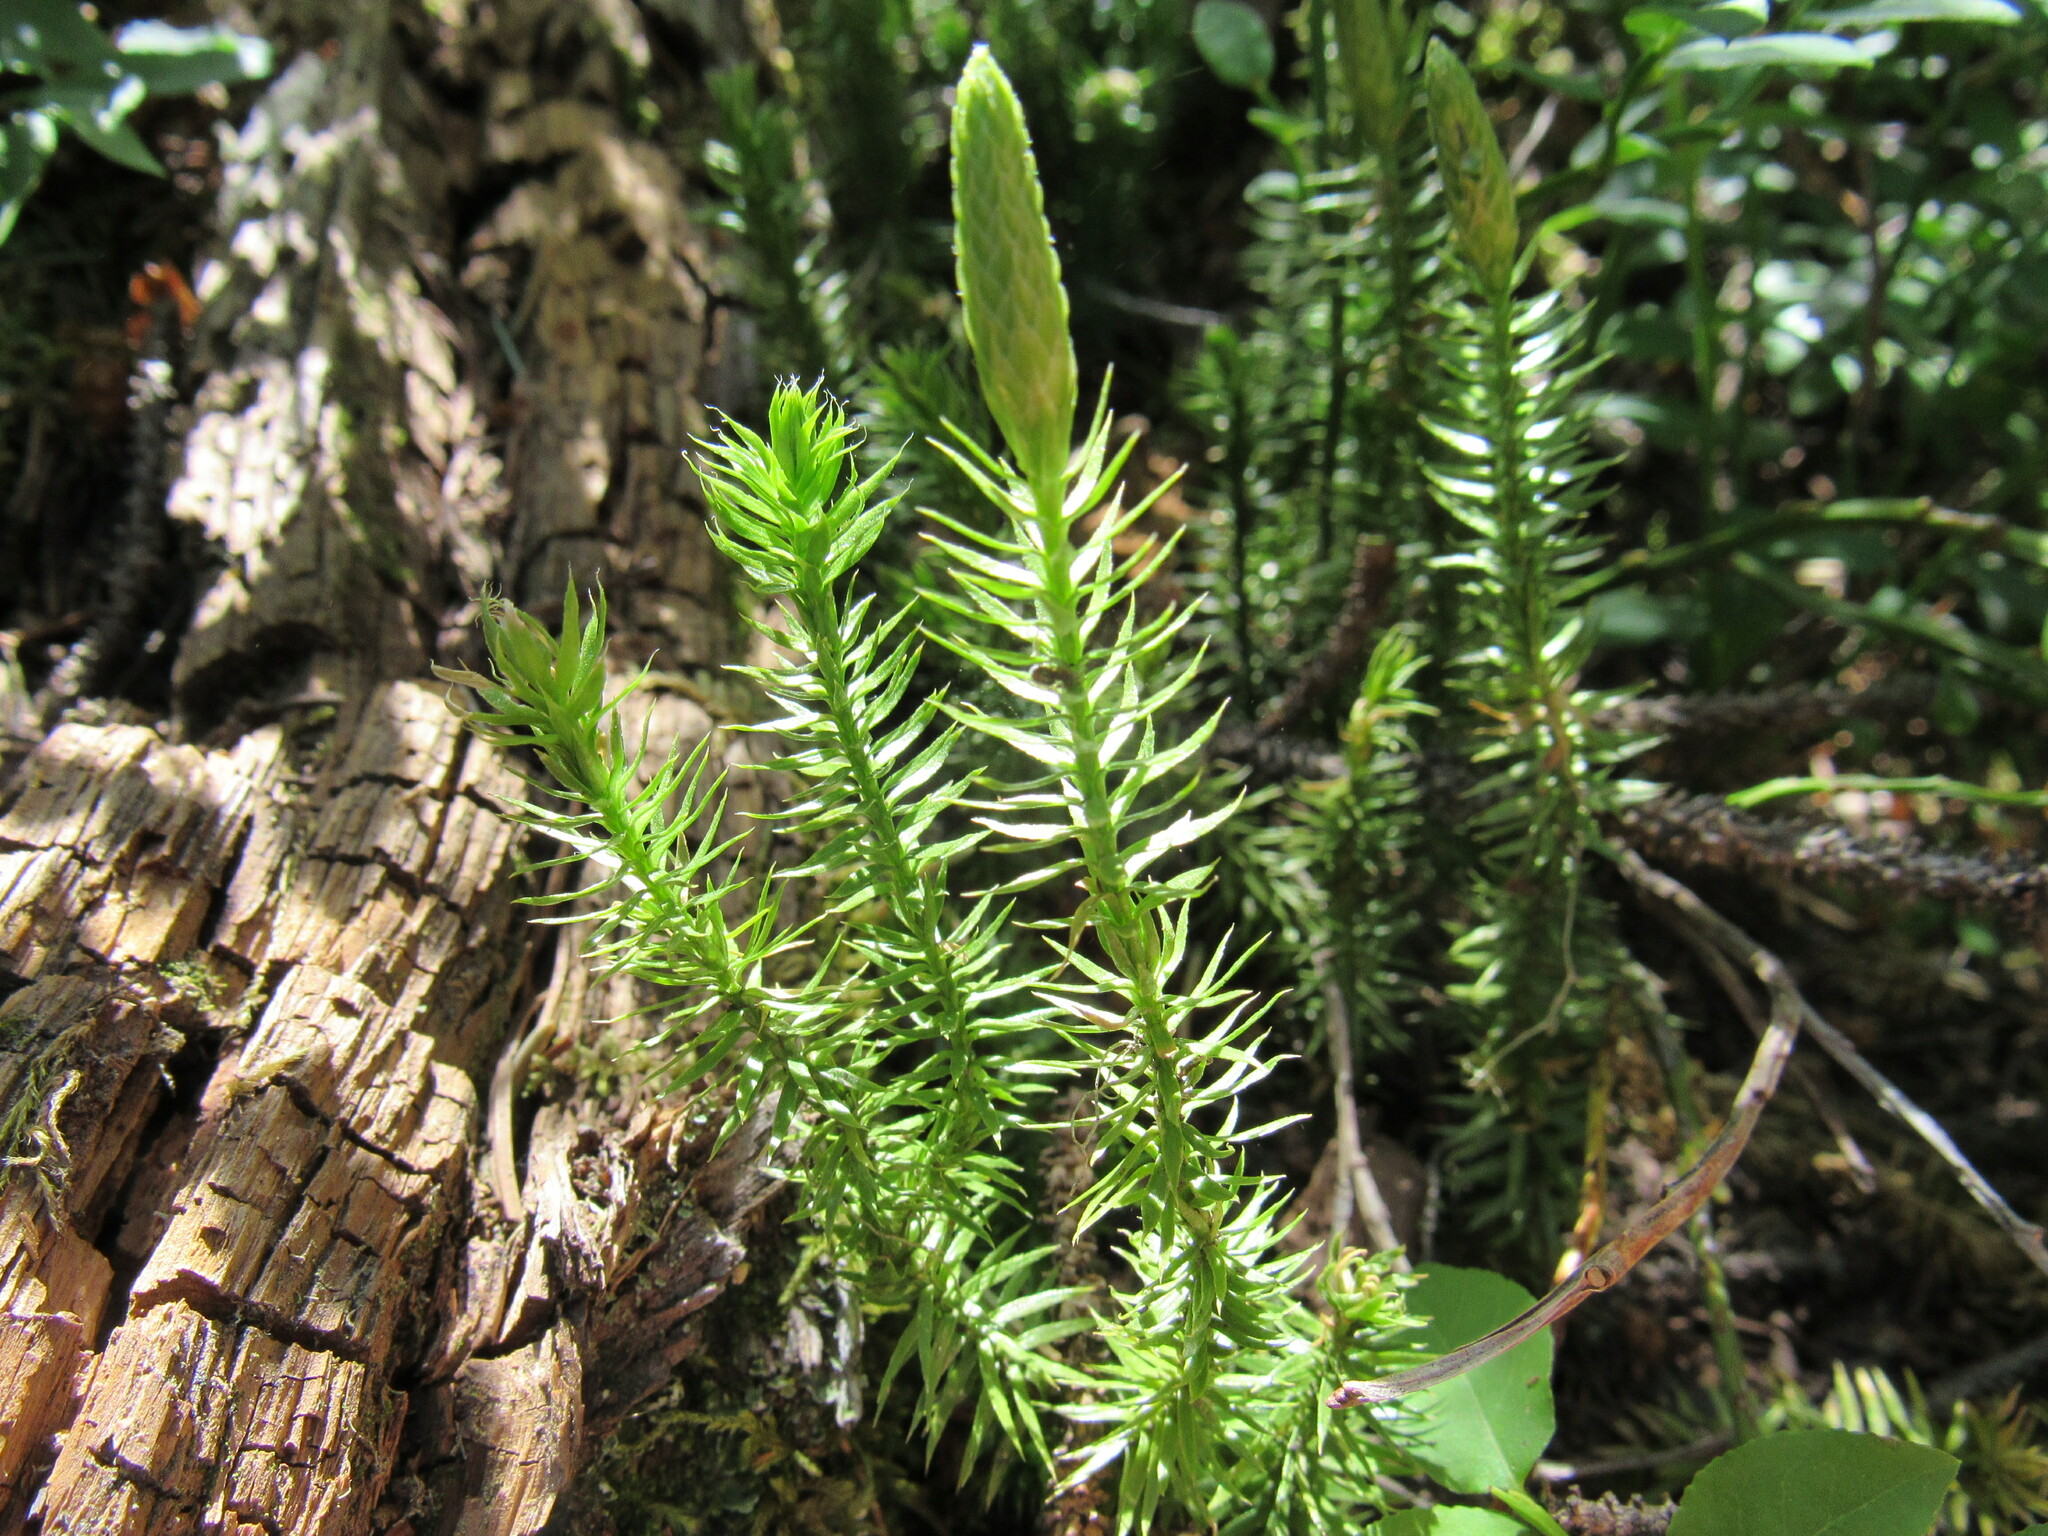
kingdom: Plantae
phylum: Tracheophyta
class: Lycopodiopsida
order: Lycopodiales
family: Lycopodiaceae
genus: Spinulum
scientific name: Spinulum annotinum
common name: Interrupted club-moss
